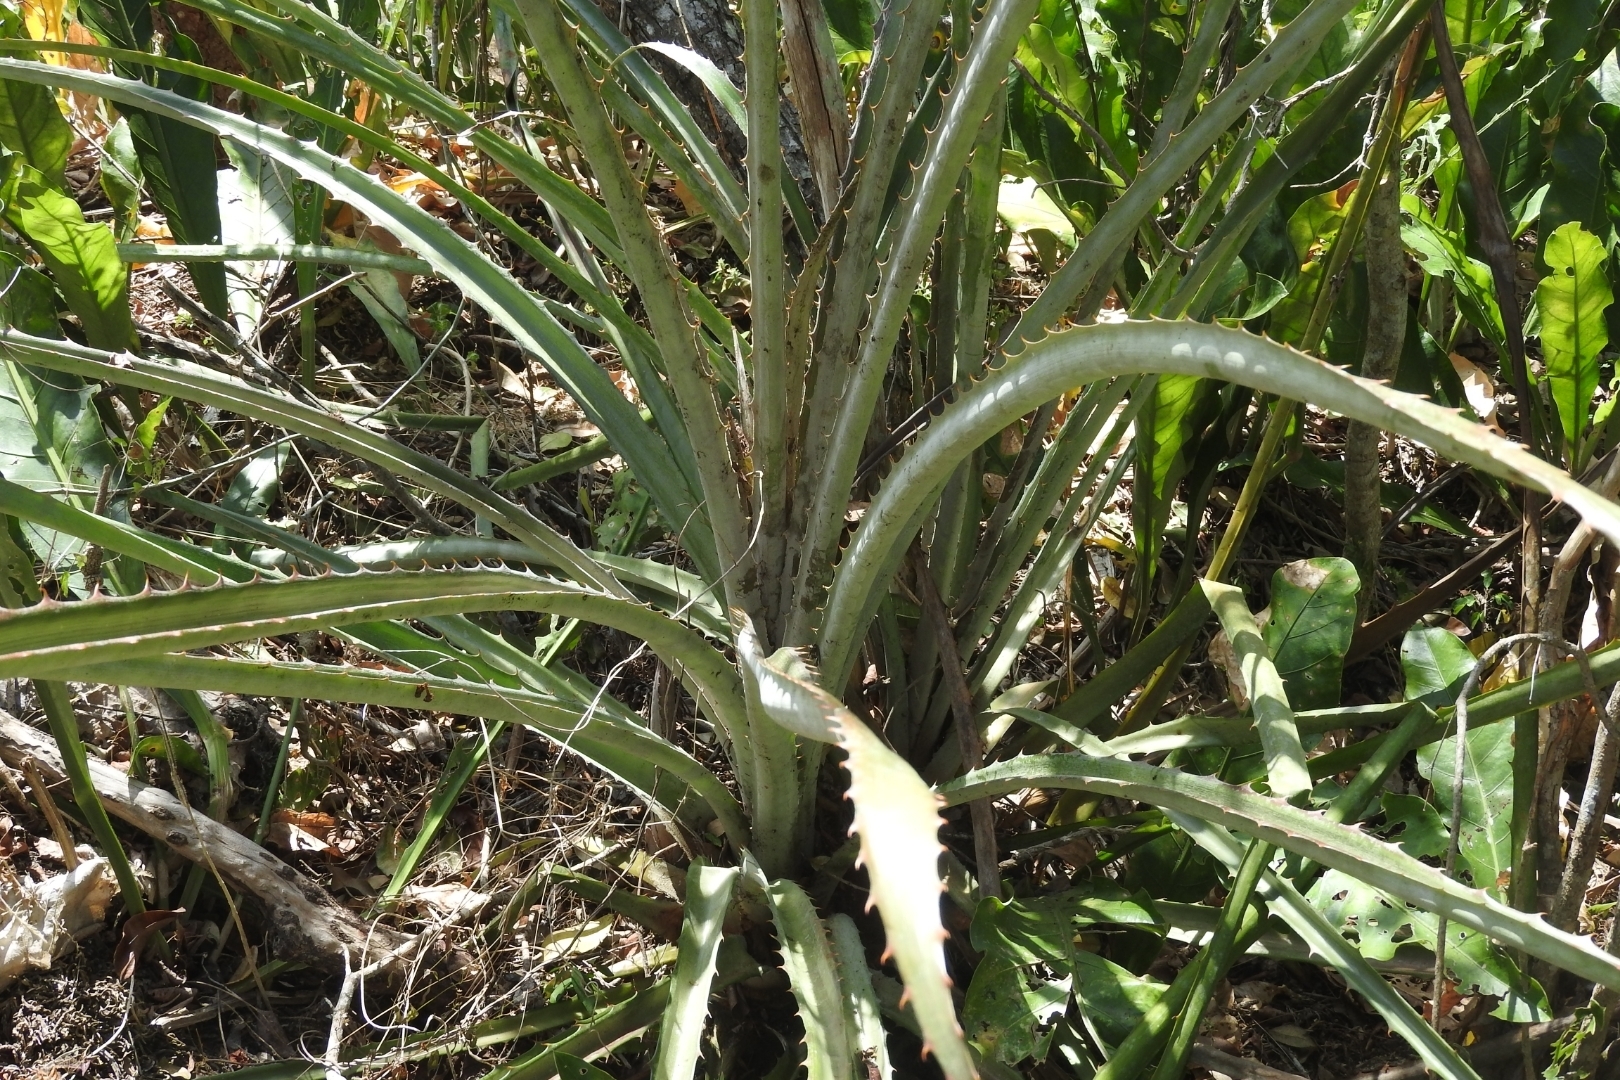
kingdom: Plantae
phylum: Tracheophyta
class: Liliopsida
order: Poales
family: Bromeliaceae
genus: Bromelia
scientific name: Bromelia pinguin
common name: Pinguin
